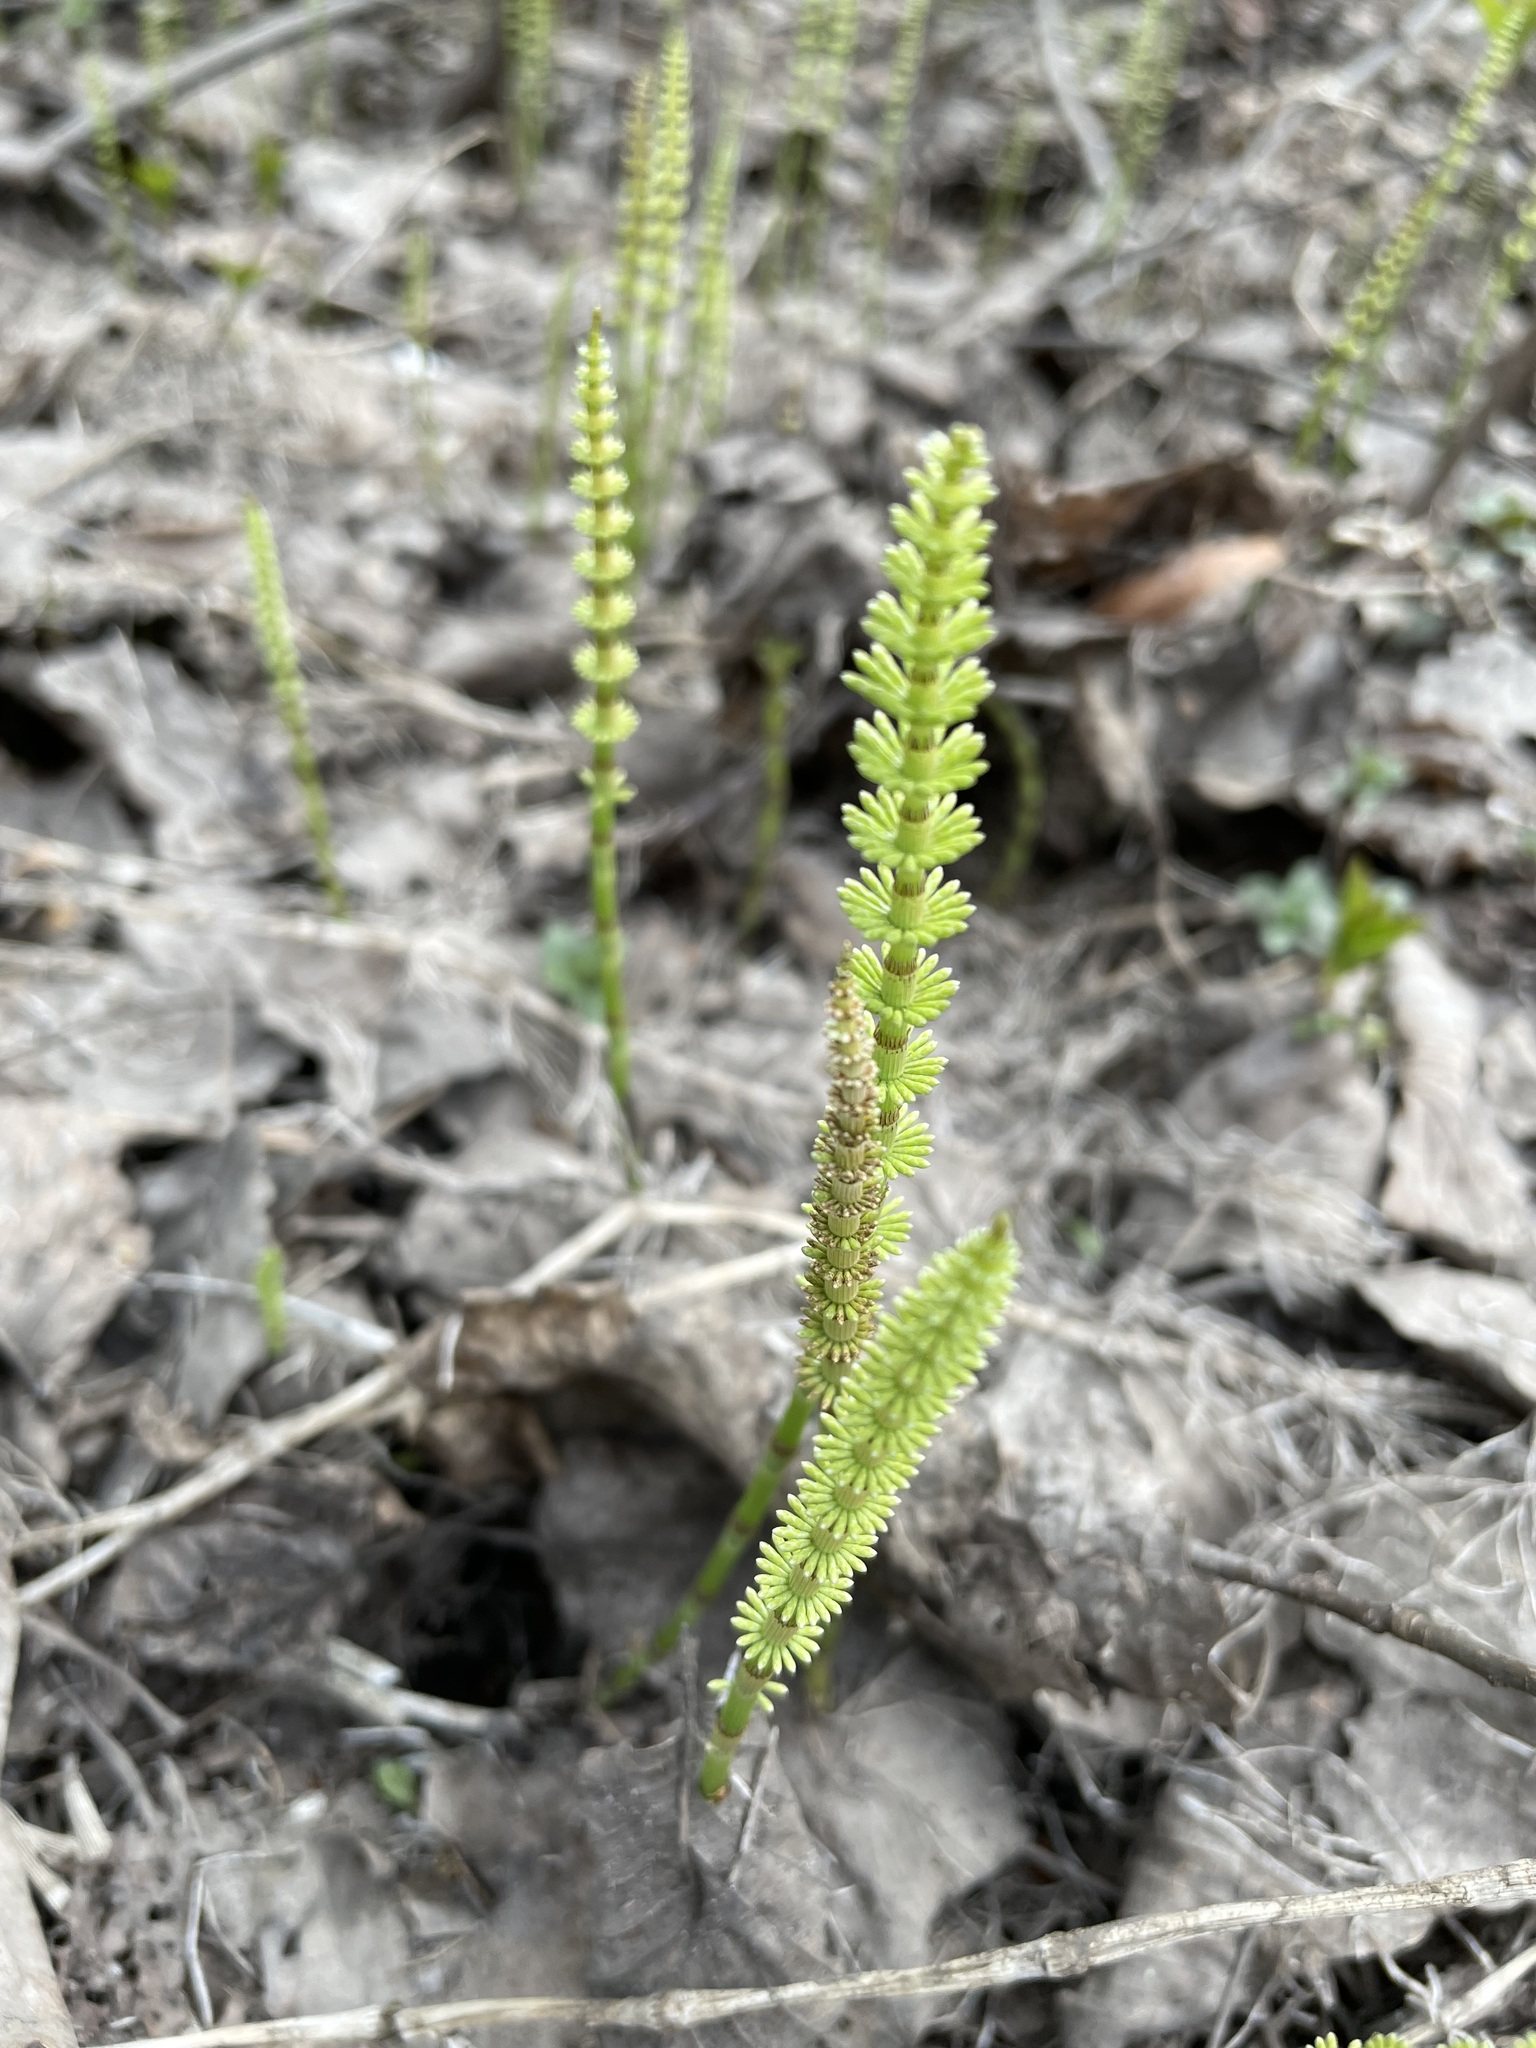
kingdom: Plantae
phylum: Tracheophyta
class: Polypodiopsida
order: Equisetales
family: Equisetaceae
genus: Equisetum
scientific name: Equisetum pratense
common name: Meadow horsetail
